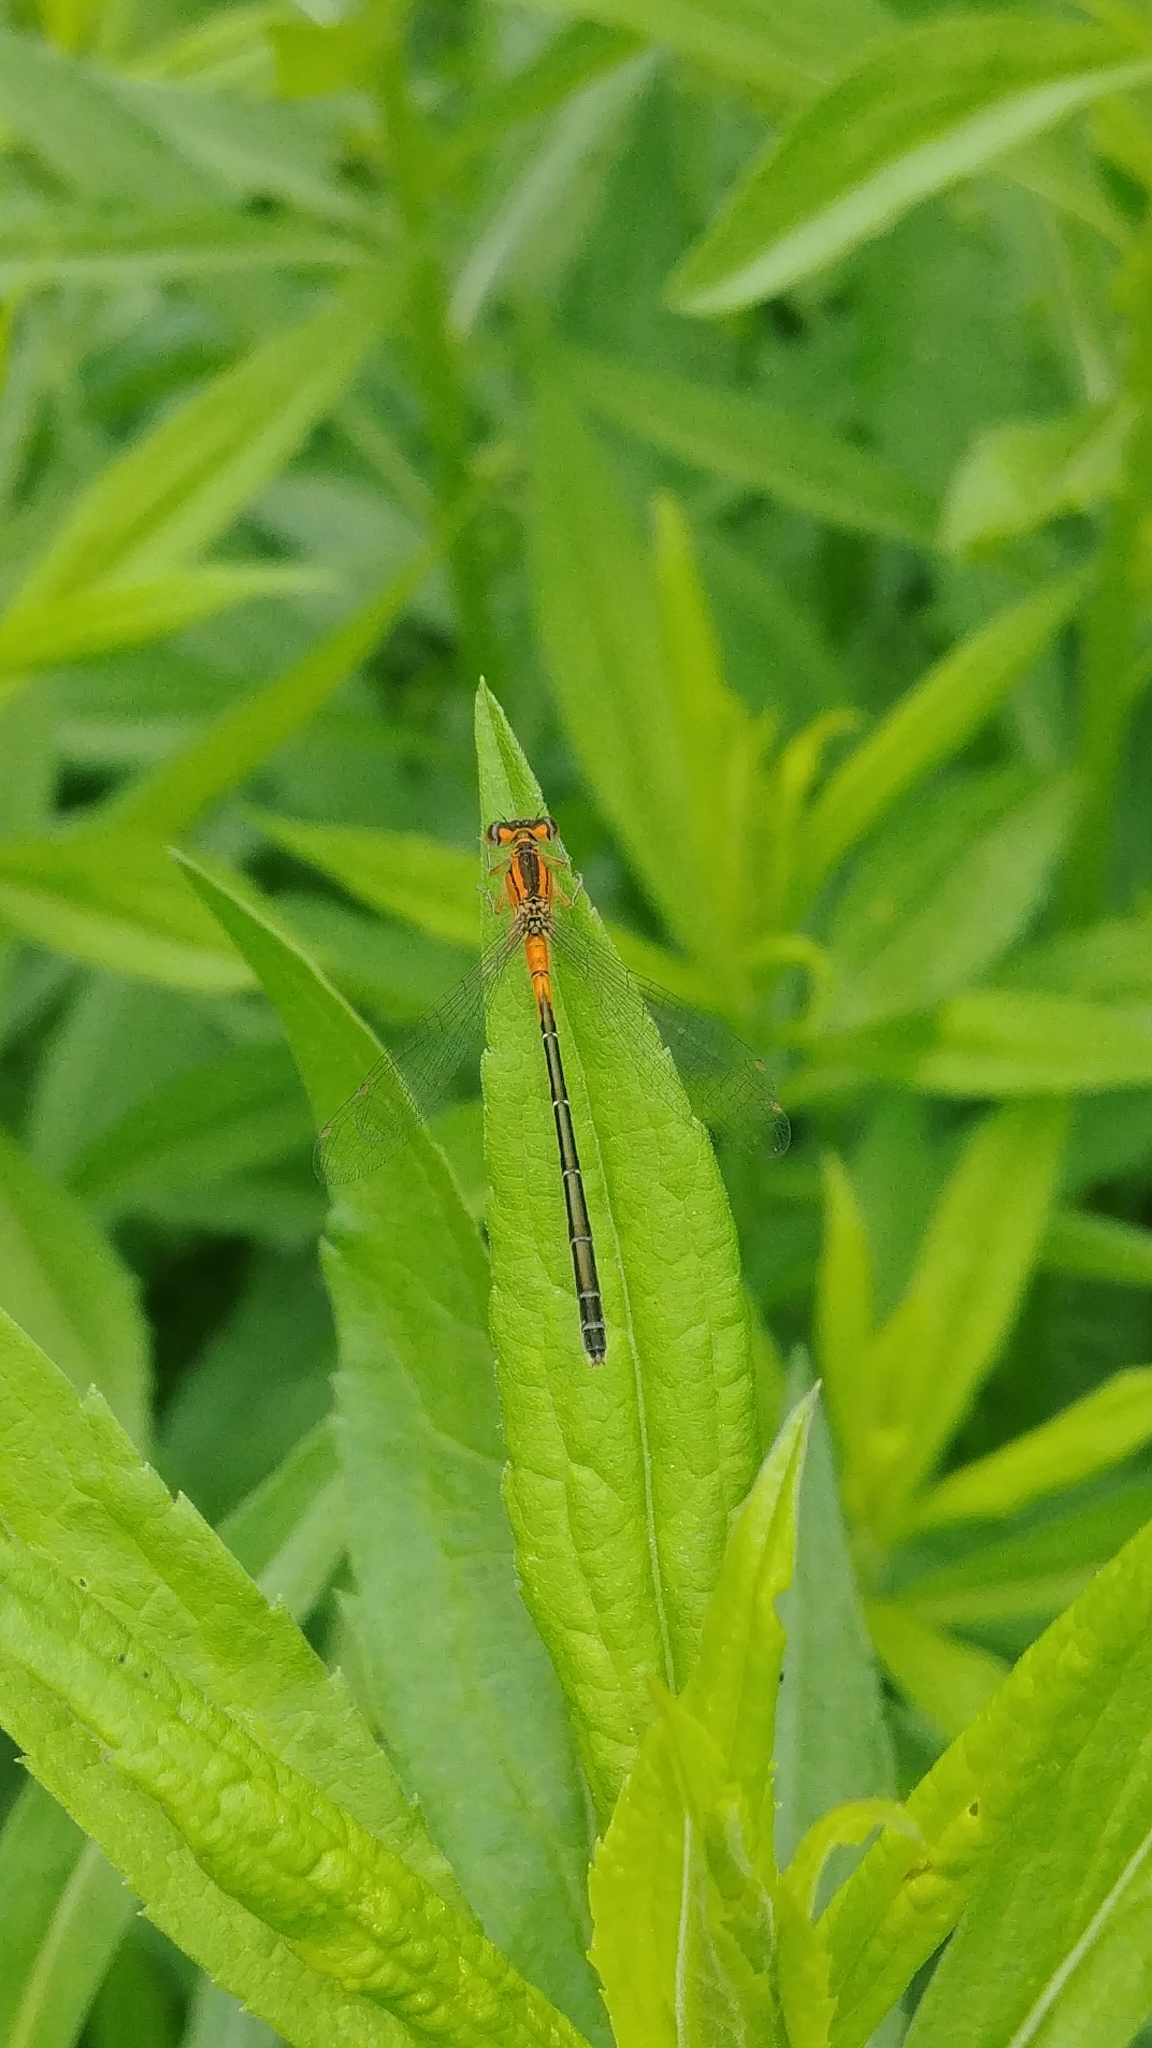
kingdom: Animalia
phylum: Arthropoda
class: Insecta
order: Odonata
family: Coenagrionidae
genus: Ischnura
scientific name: Ischnura verticalis
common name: Eastern forktail
